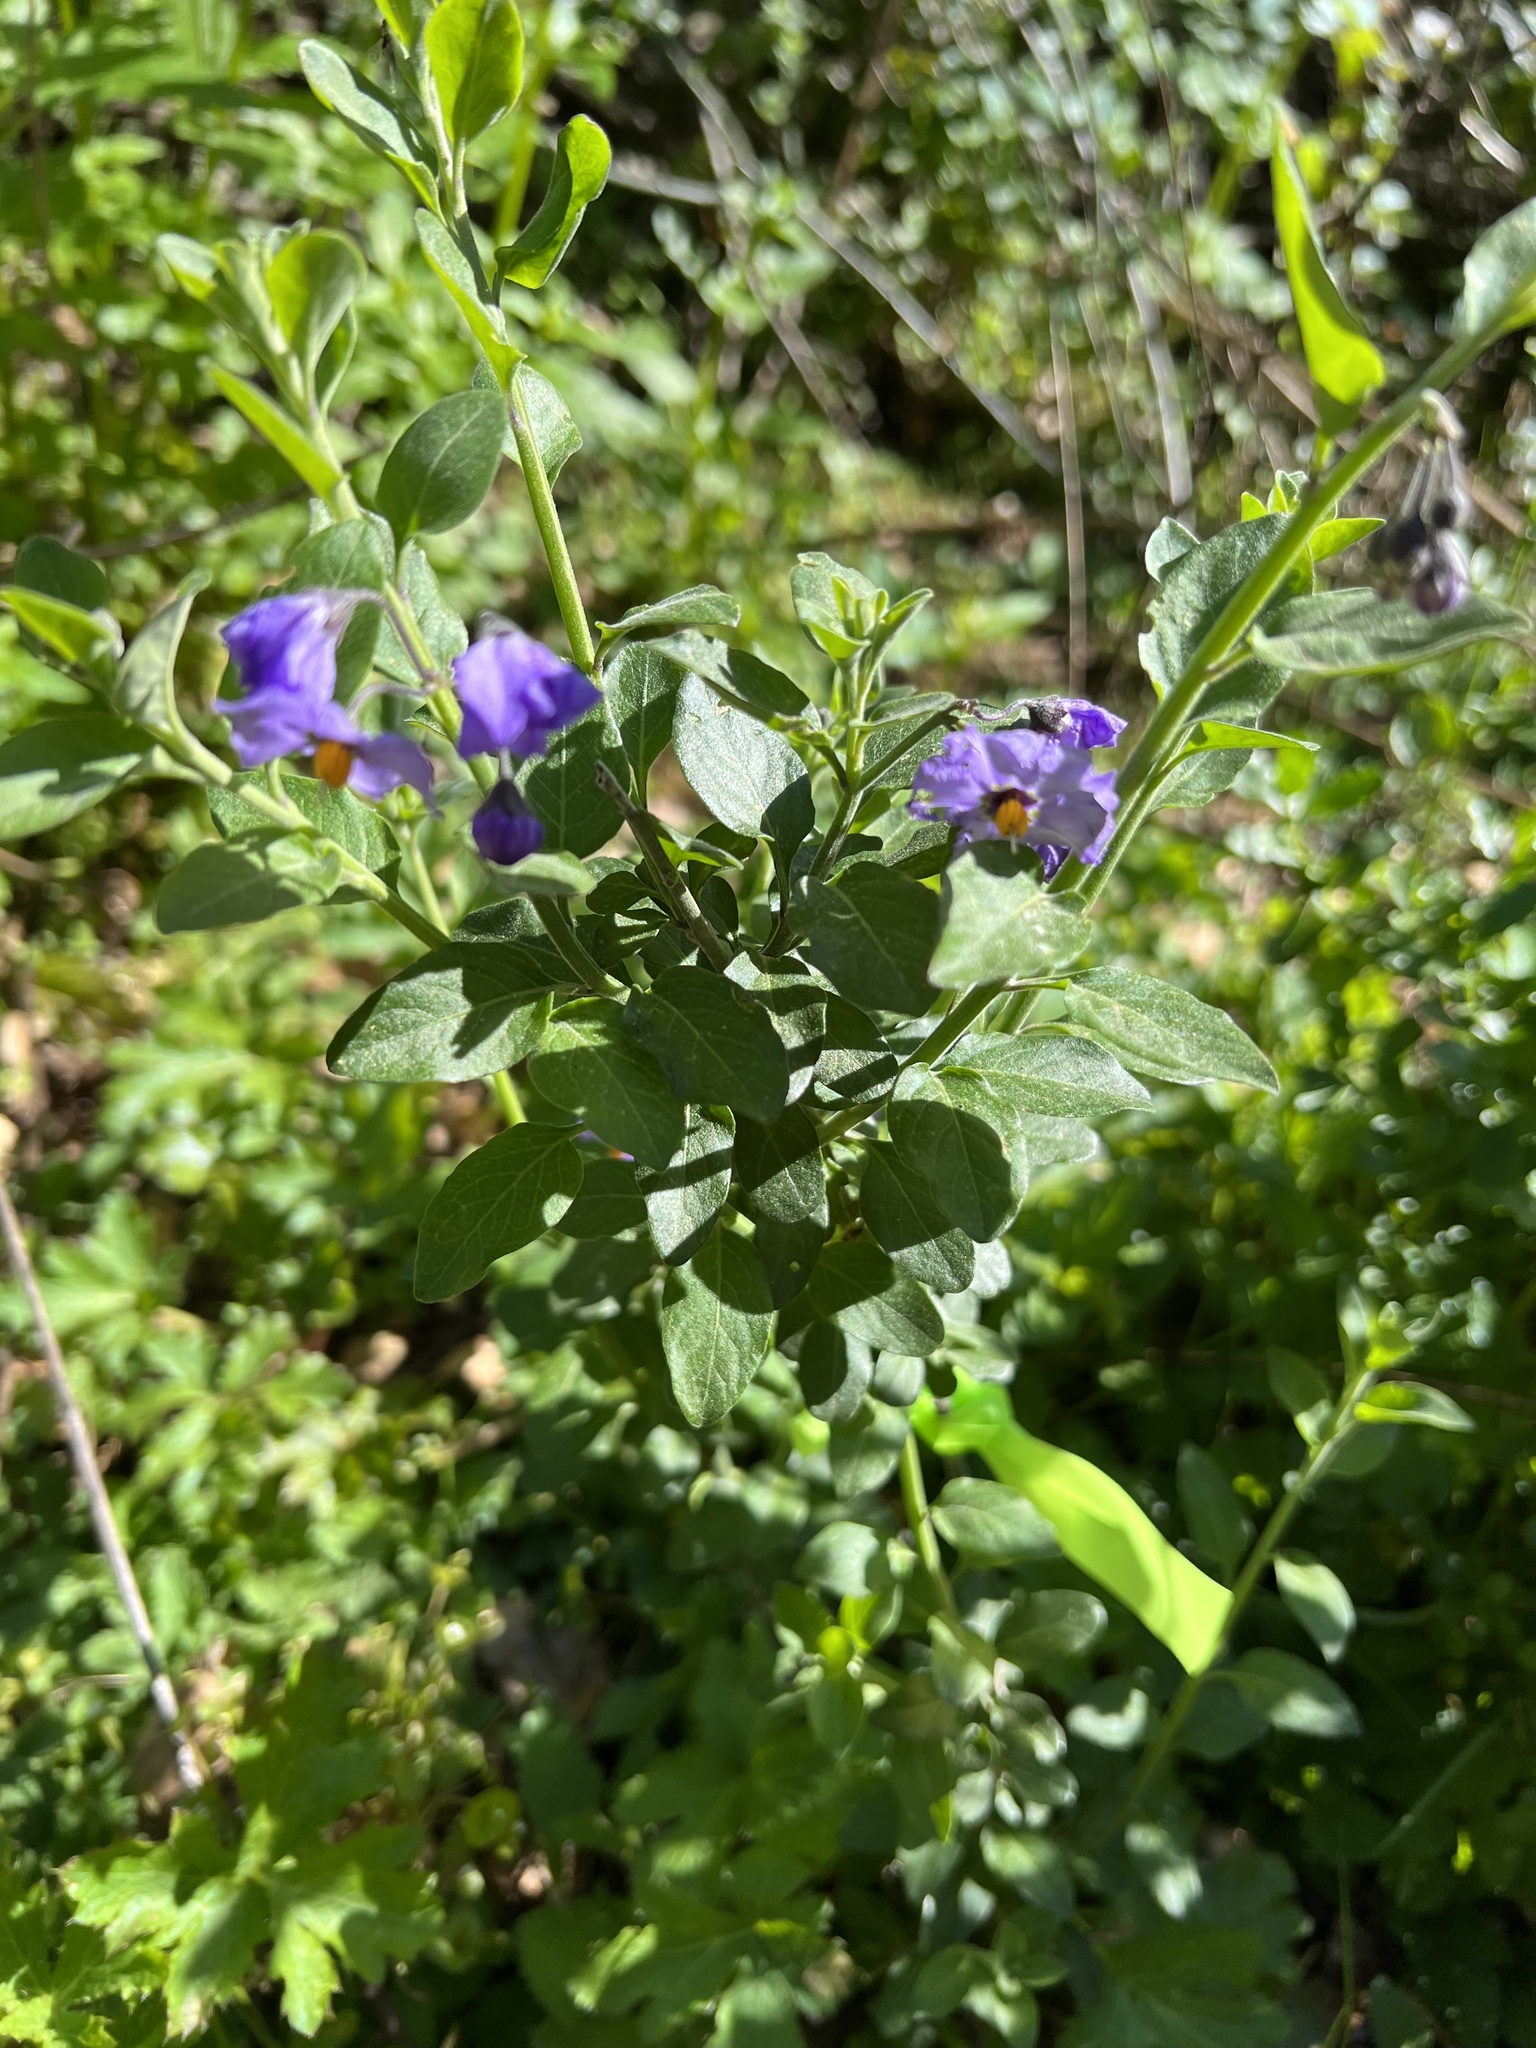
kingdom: Plantae
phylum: Tracheophyta
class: Magnoliopsida
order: Solanales
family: Solanaceae
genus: Solanum
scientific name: Solanum umbelliferum
